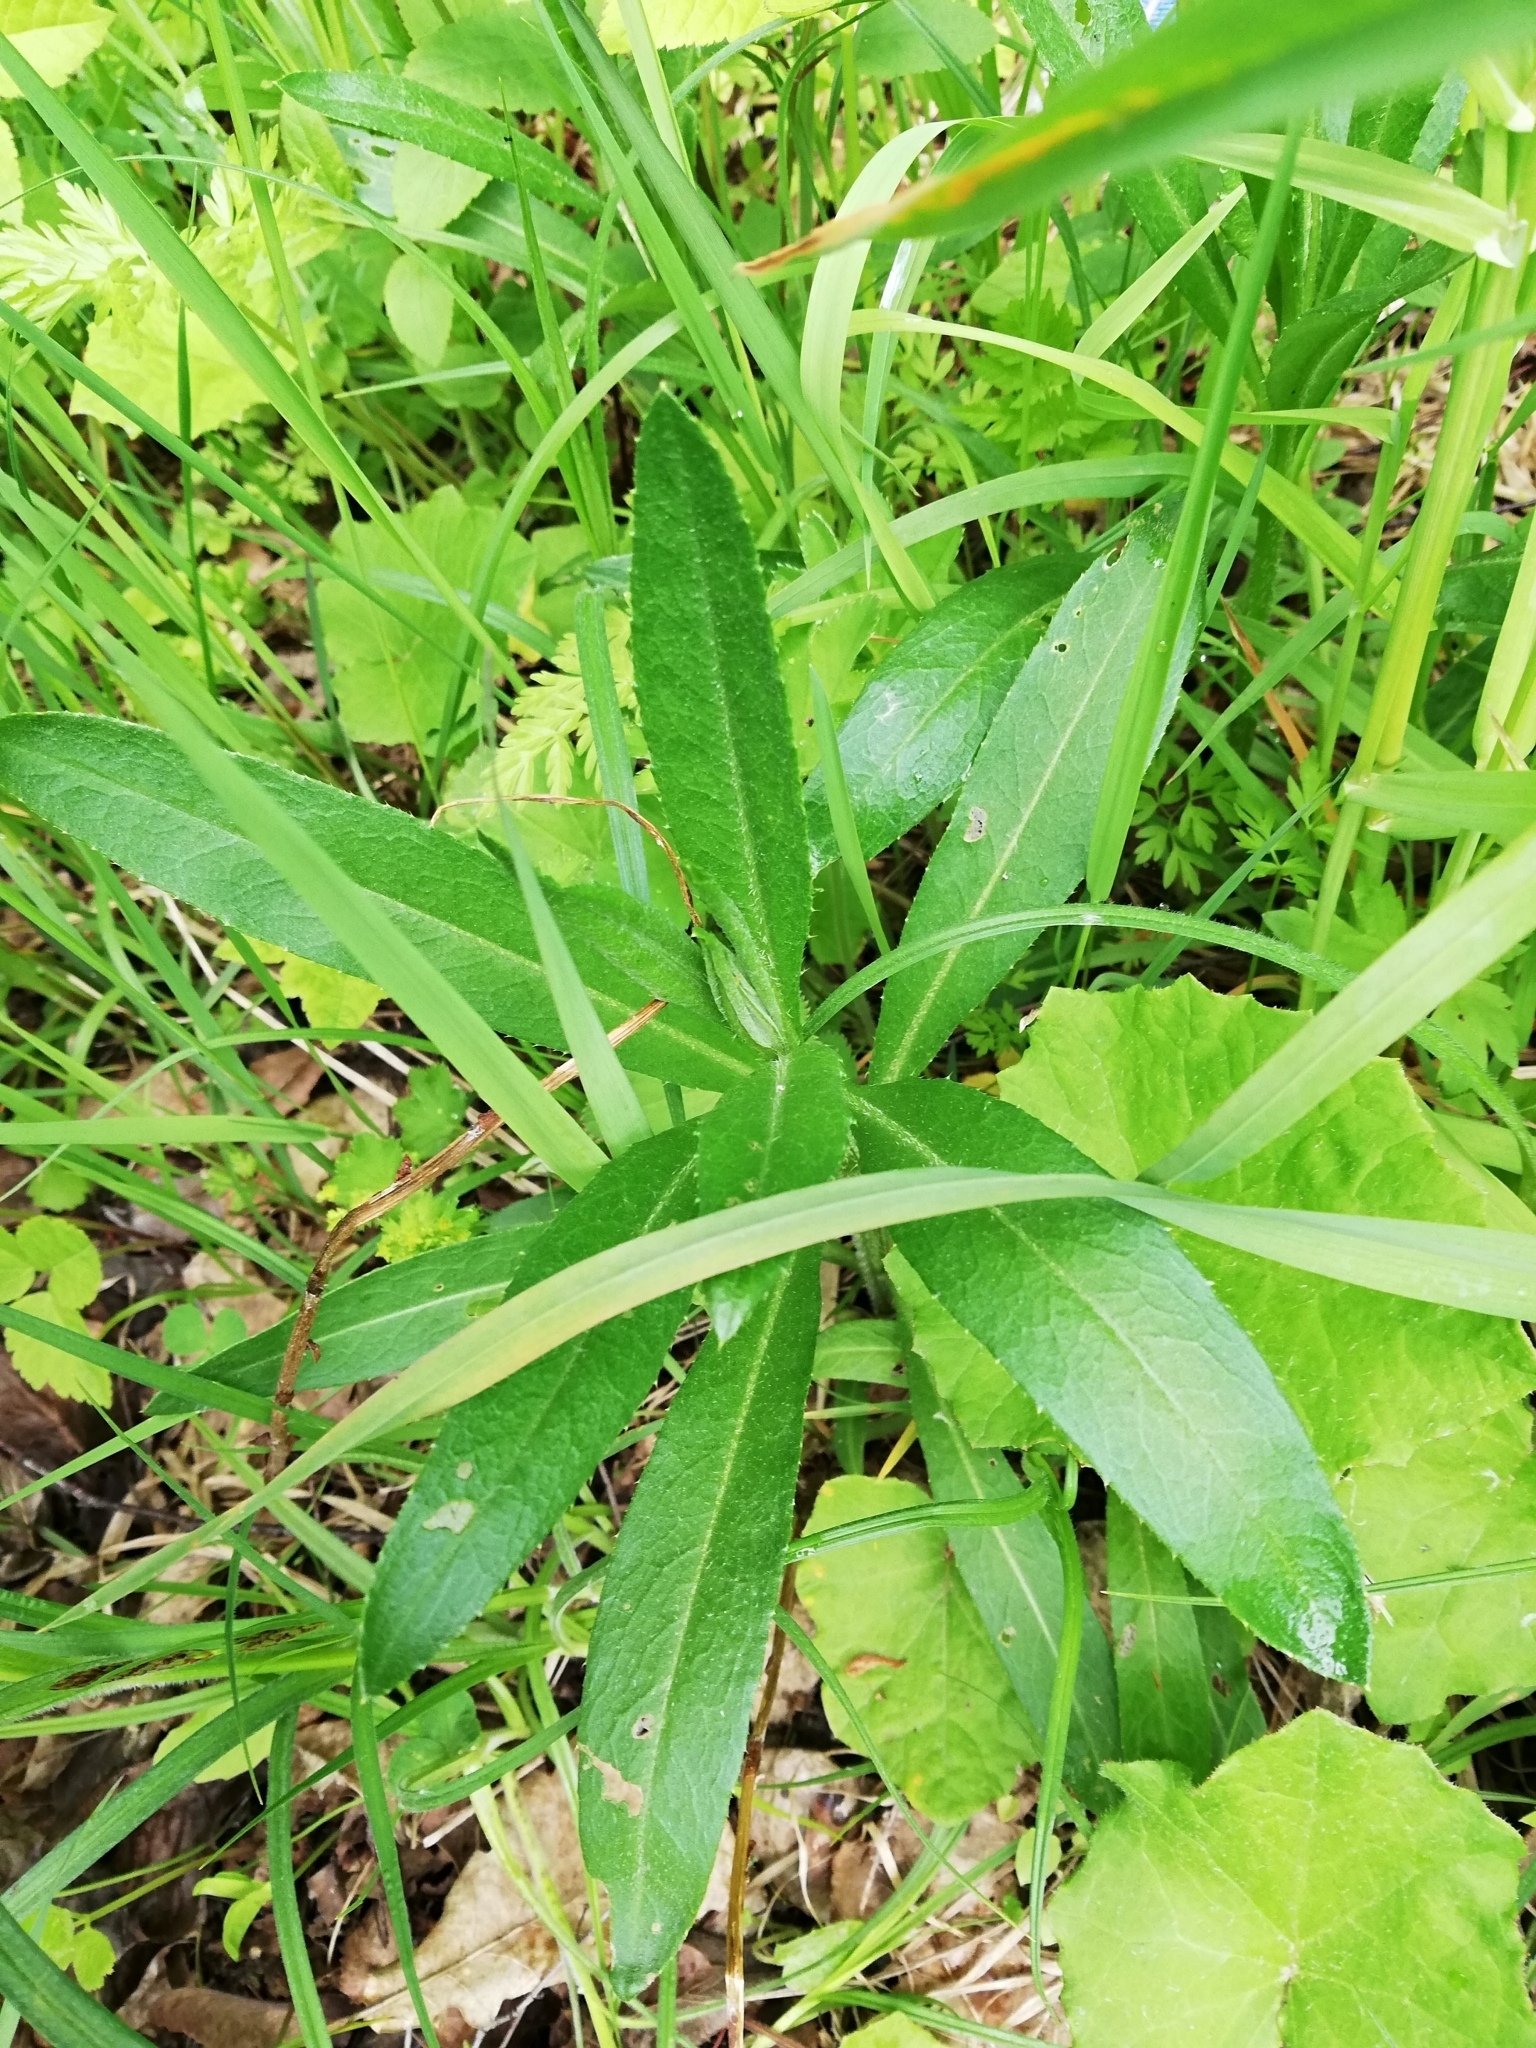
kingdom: Plantae
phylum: Tracheophyta
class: Magnoliopsida
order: Asterales
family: Asteraceae
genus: Cirsium
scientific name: Cirsium arvense
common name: Creeping thistle
